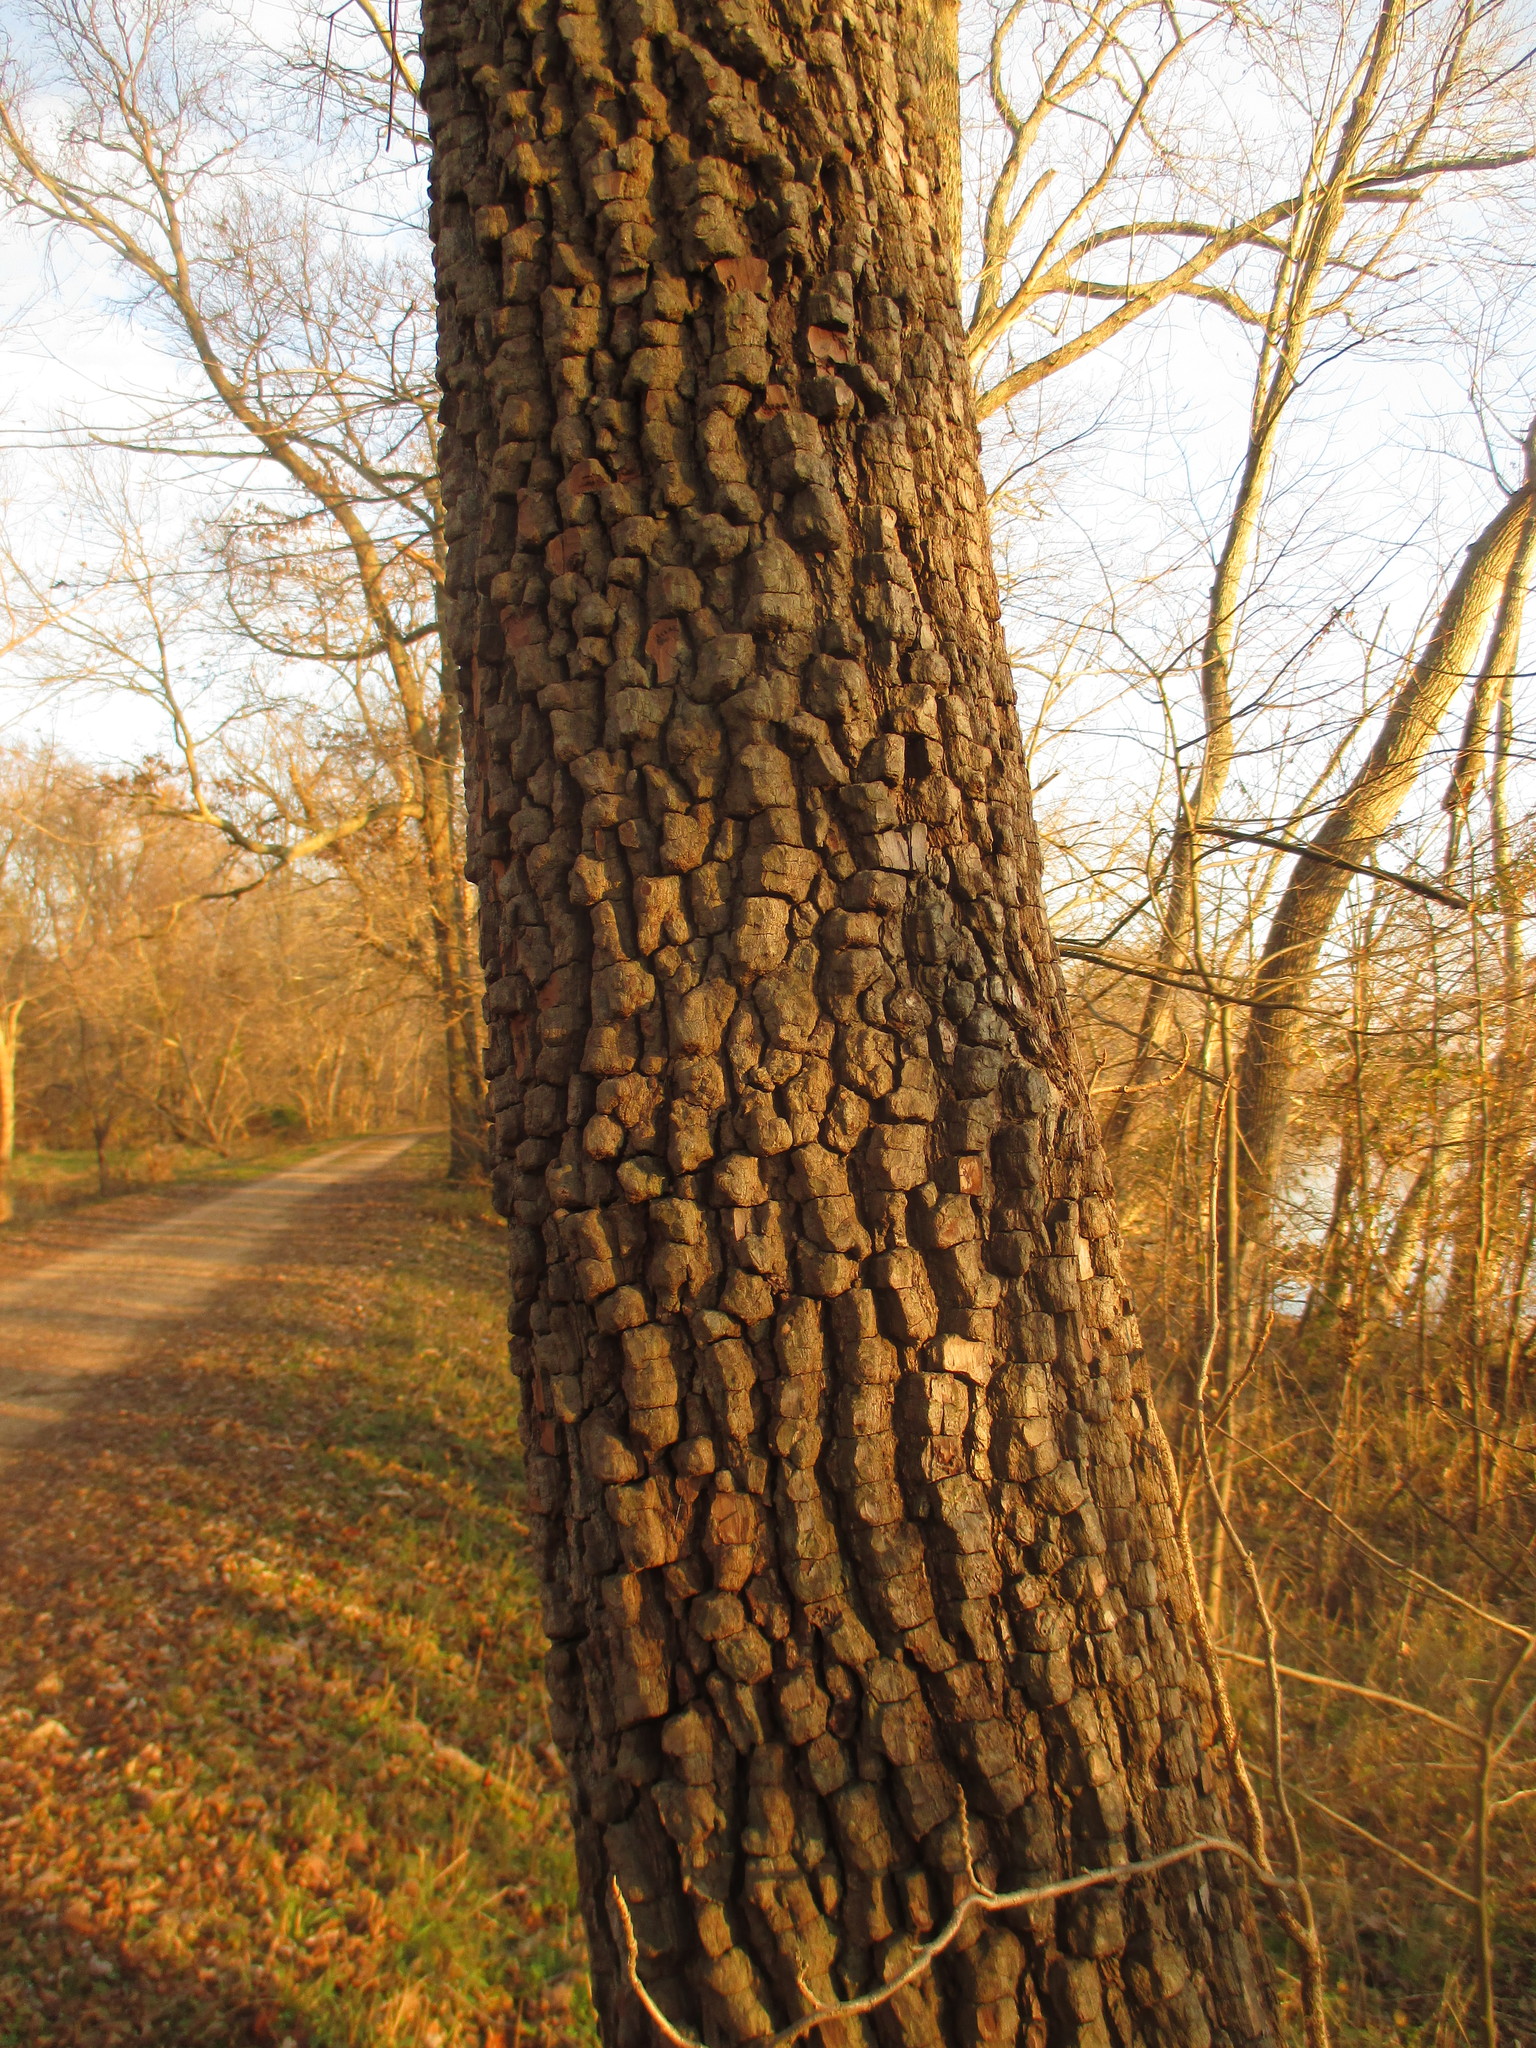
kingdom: Plantae
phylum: Tracheophyta
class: Magnoliopsida
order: Ericales
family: Ebenaceae
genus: Diospyros
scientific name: Diospyros virginiana
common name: Persimmon
